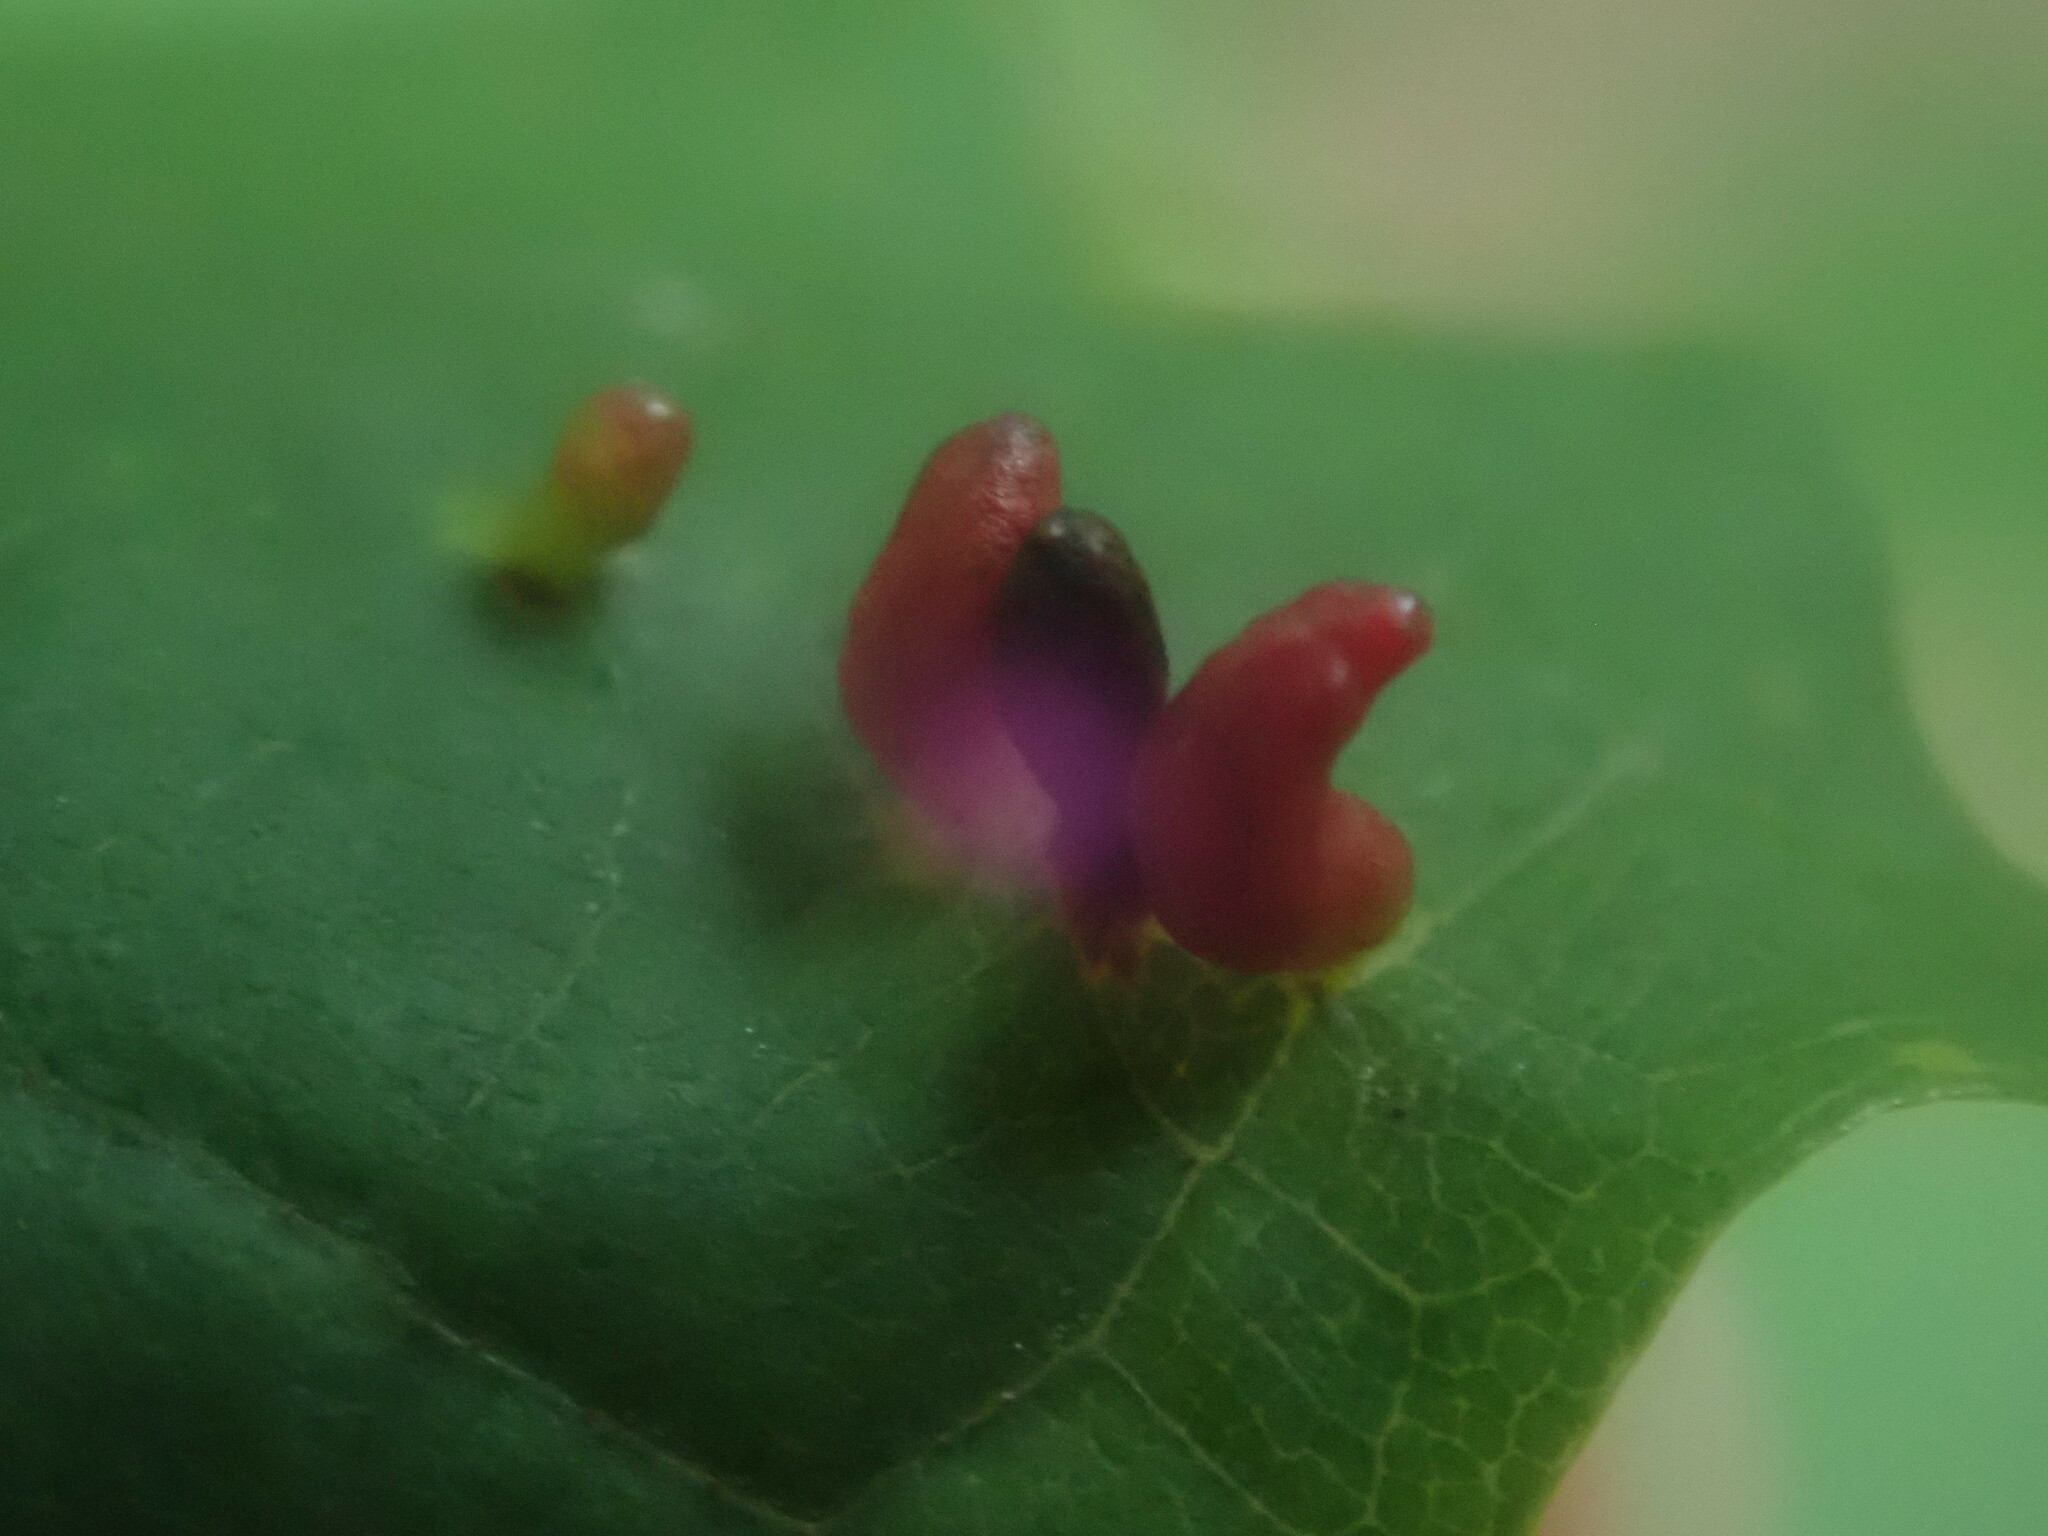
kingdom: Animalia
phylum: Arthropoda
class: Arachnida
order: Trombidiformes
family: Eriophyidae
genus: Vasates
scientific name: Vasates aceriscrumena
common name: Maple spindle gall mite
